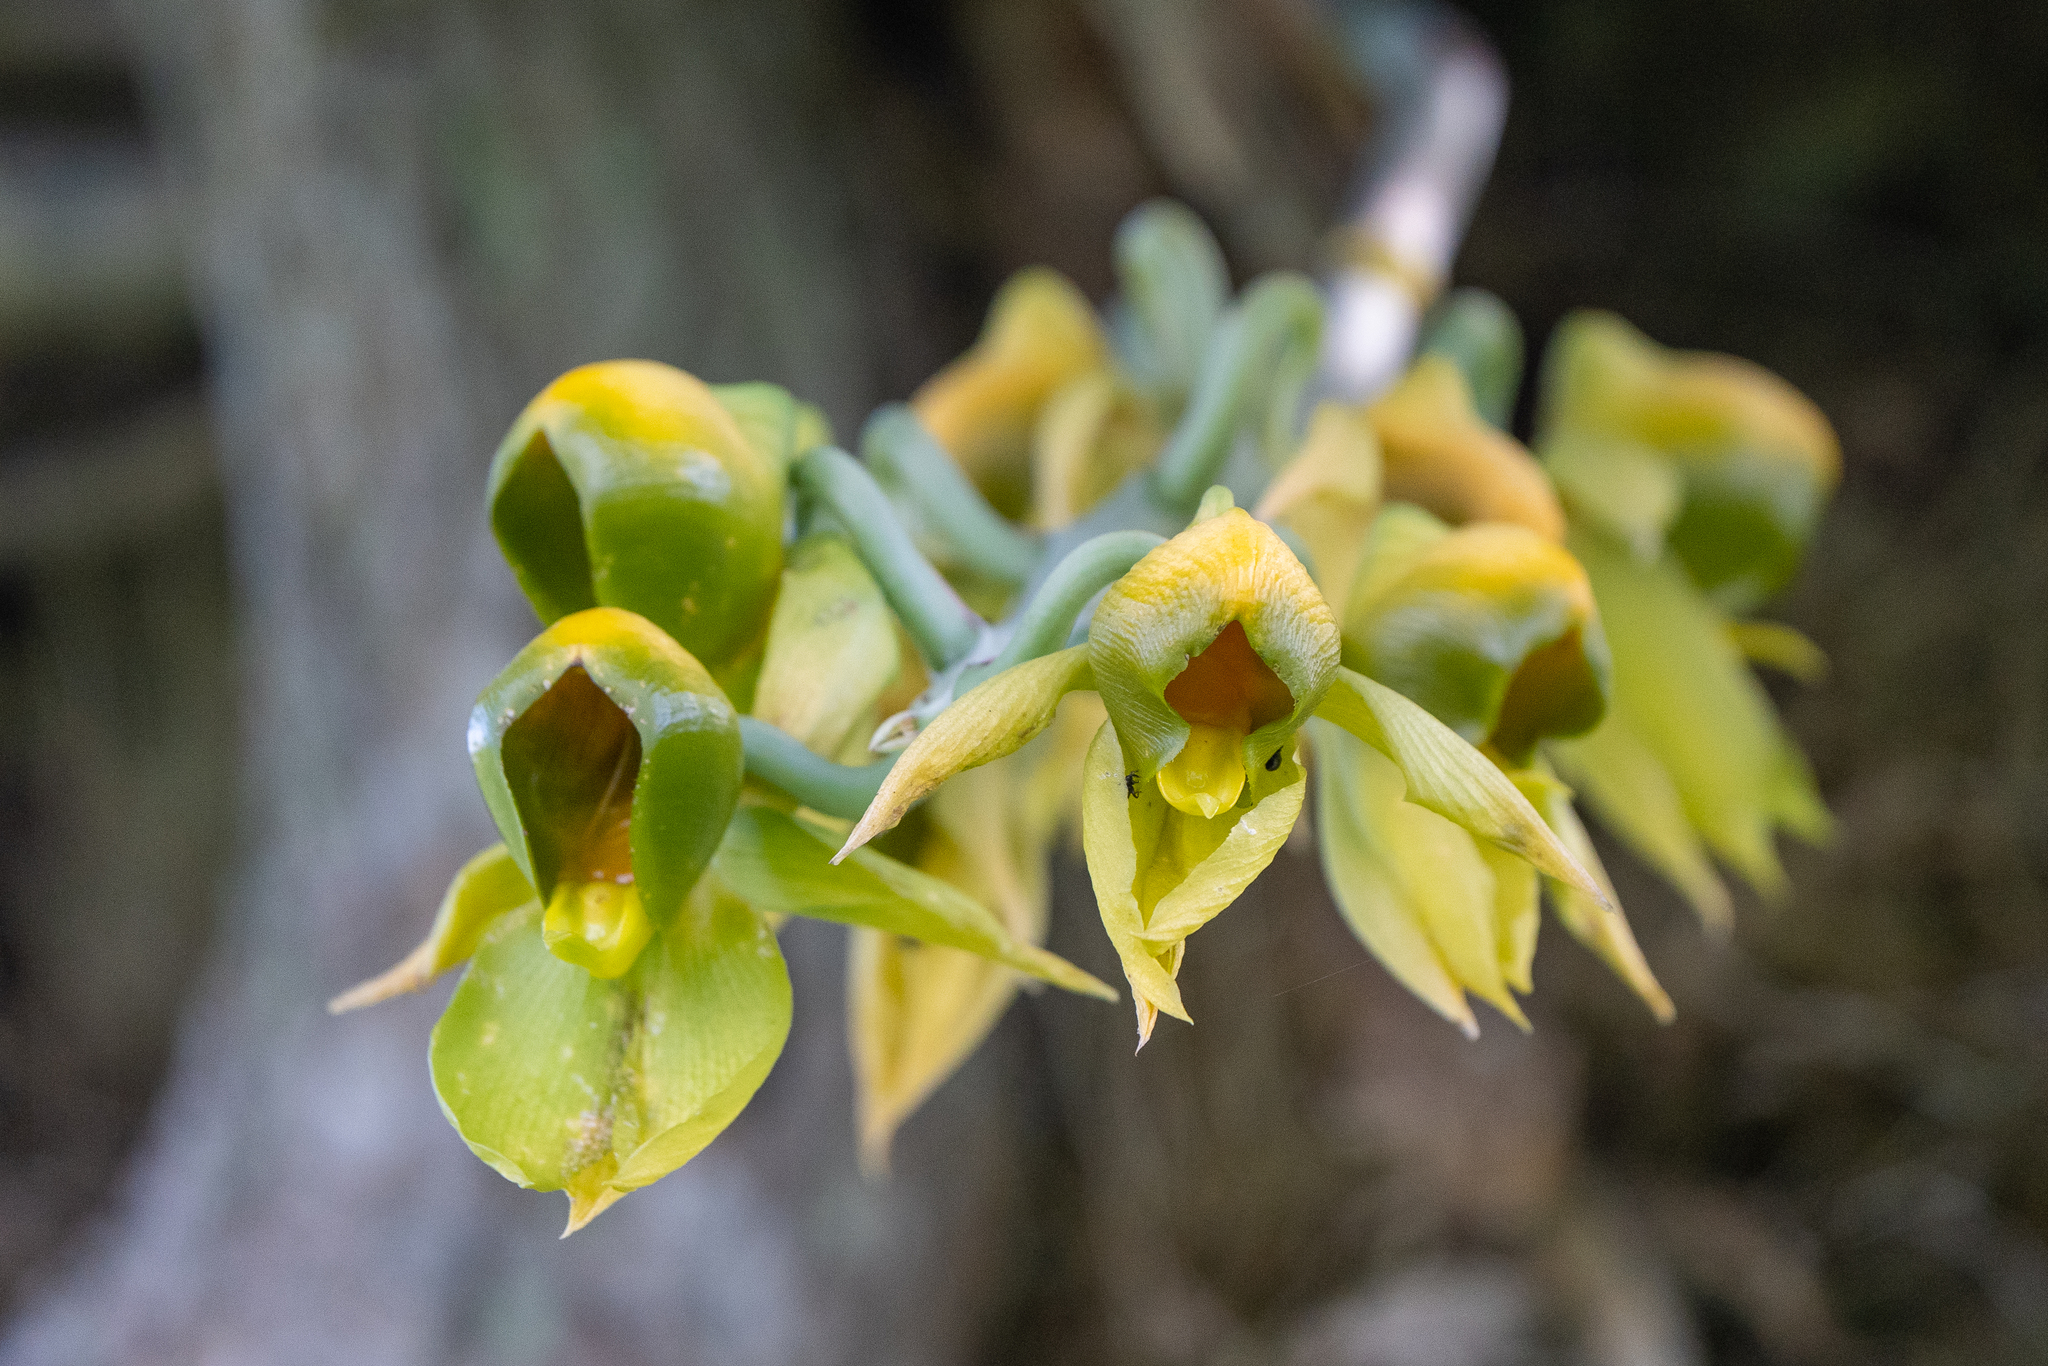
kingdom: Plantae
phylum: Tracheophyta
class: Liliopsida
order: Asparagales
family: Orchidaceae
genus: Catasetum
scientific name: Catasetum viridiflavum
